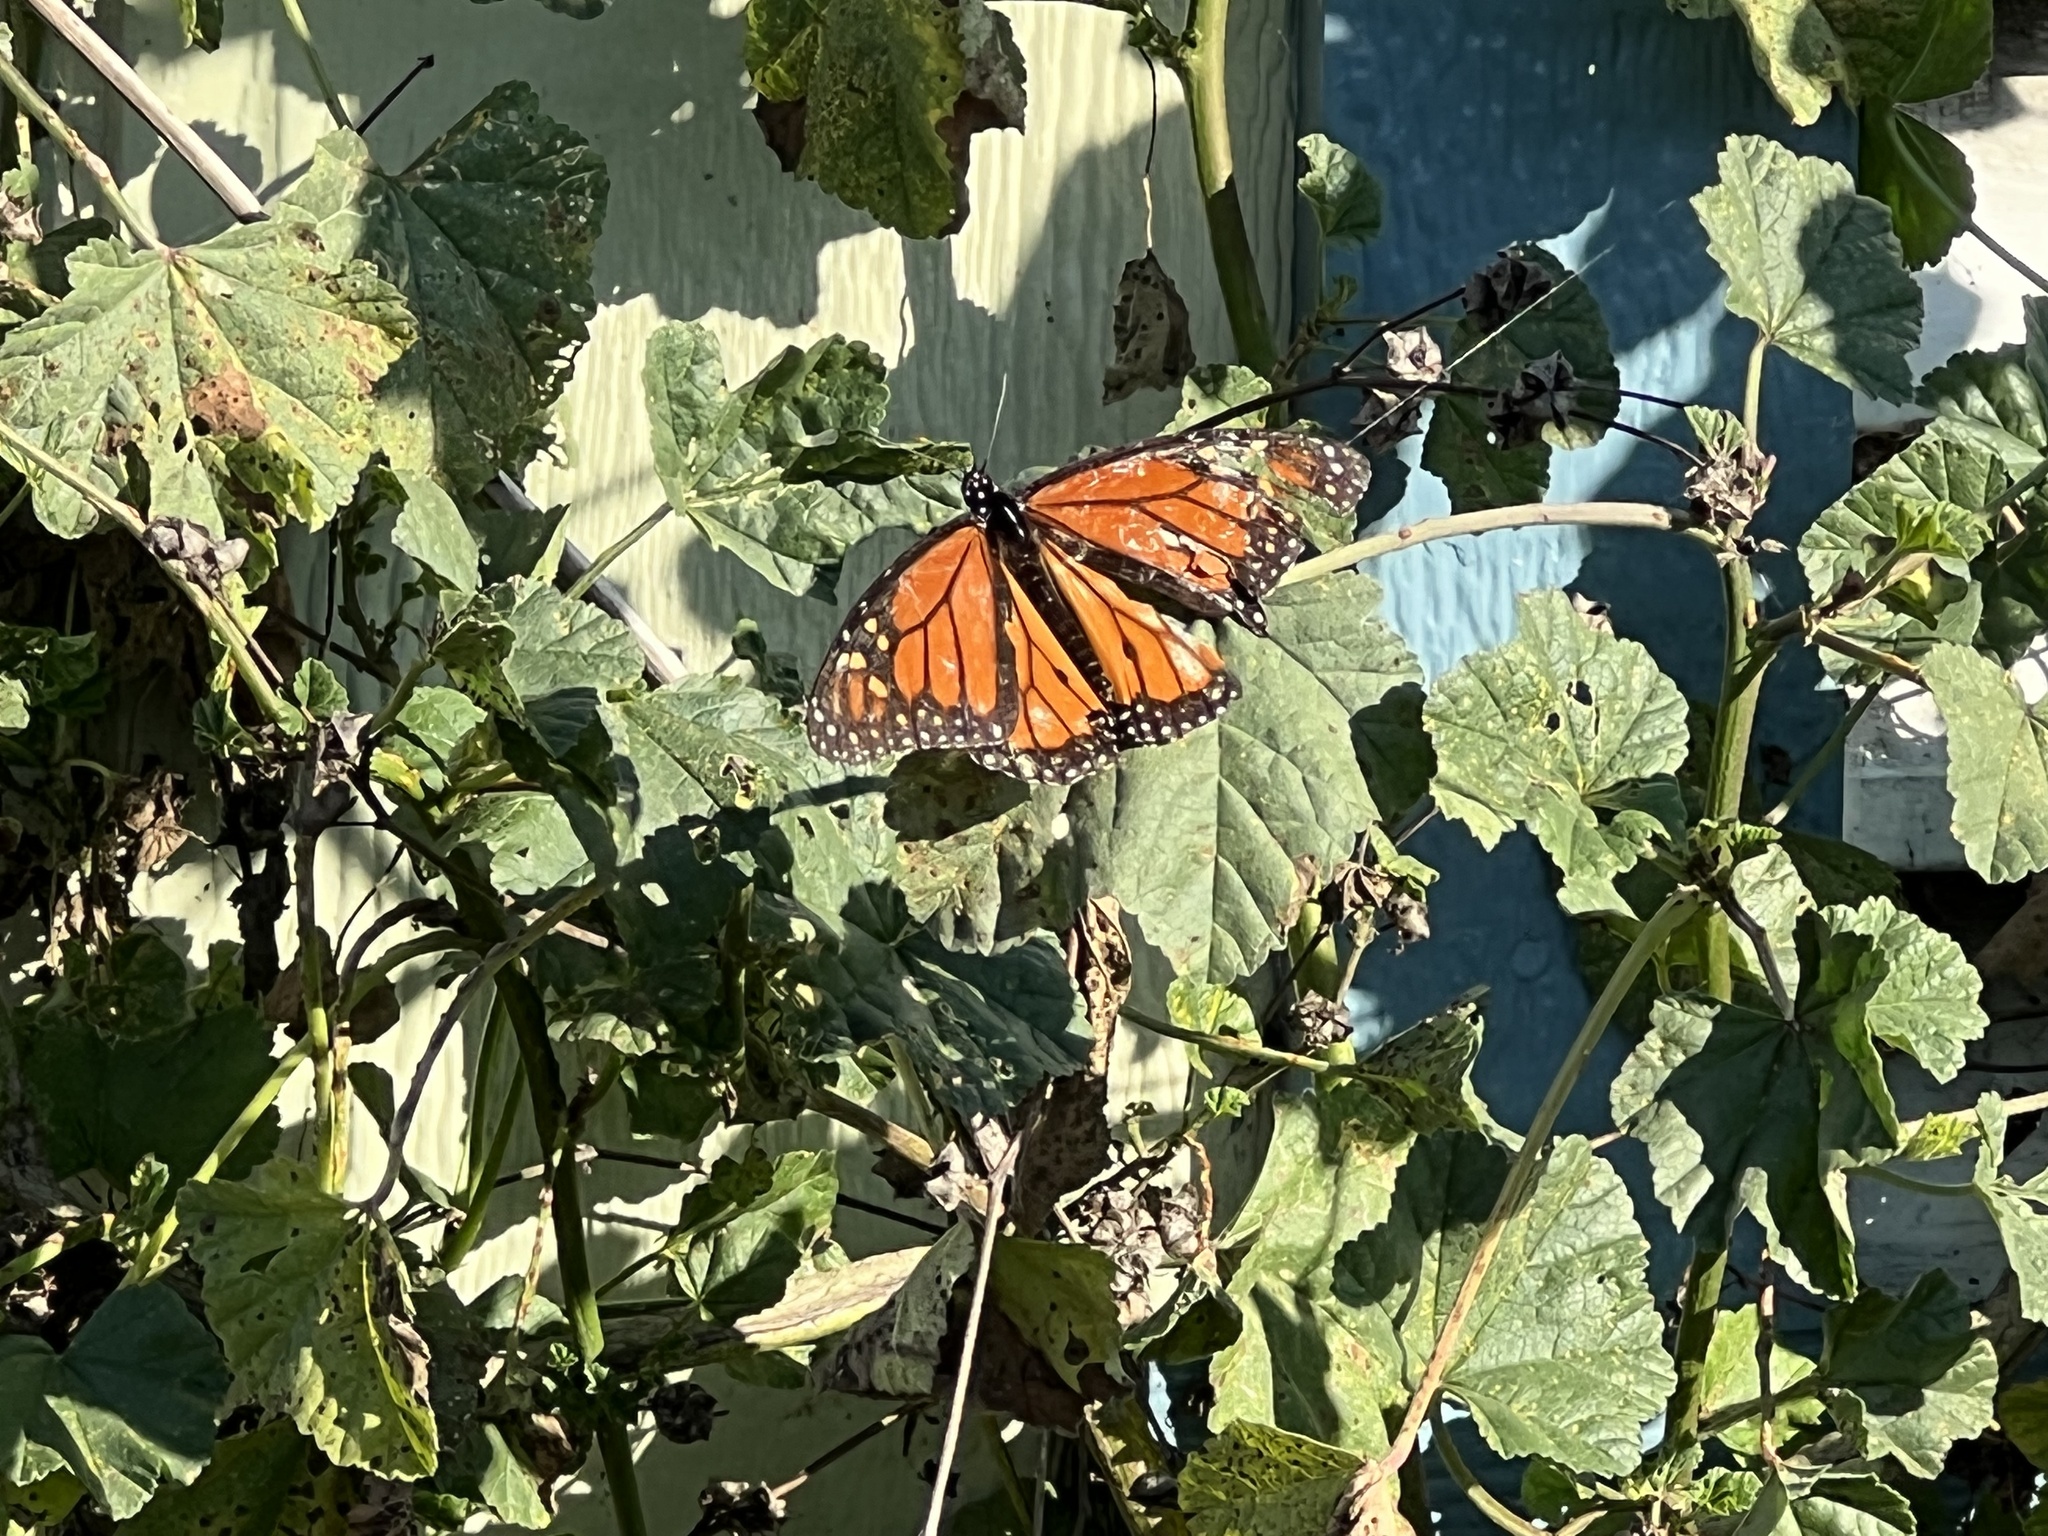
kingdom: Animalia
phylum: Arthropoda
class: Insecta
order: Lepidoptera
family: Nymphalidae
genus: Danaus
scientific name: Danaus plexippus
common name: Monarch
